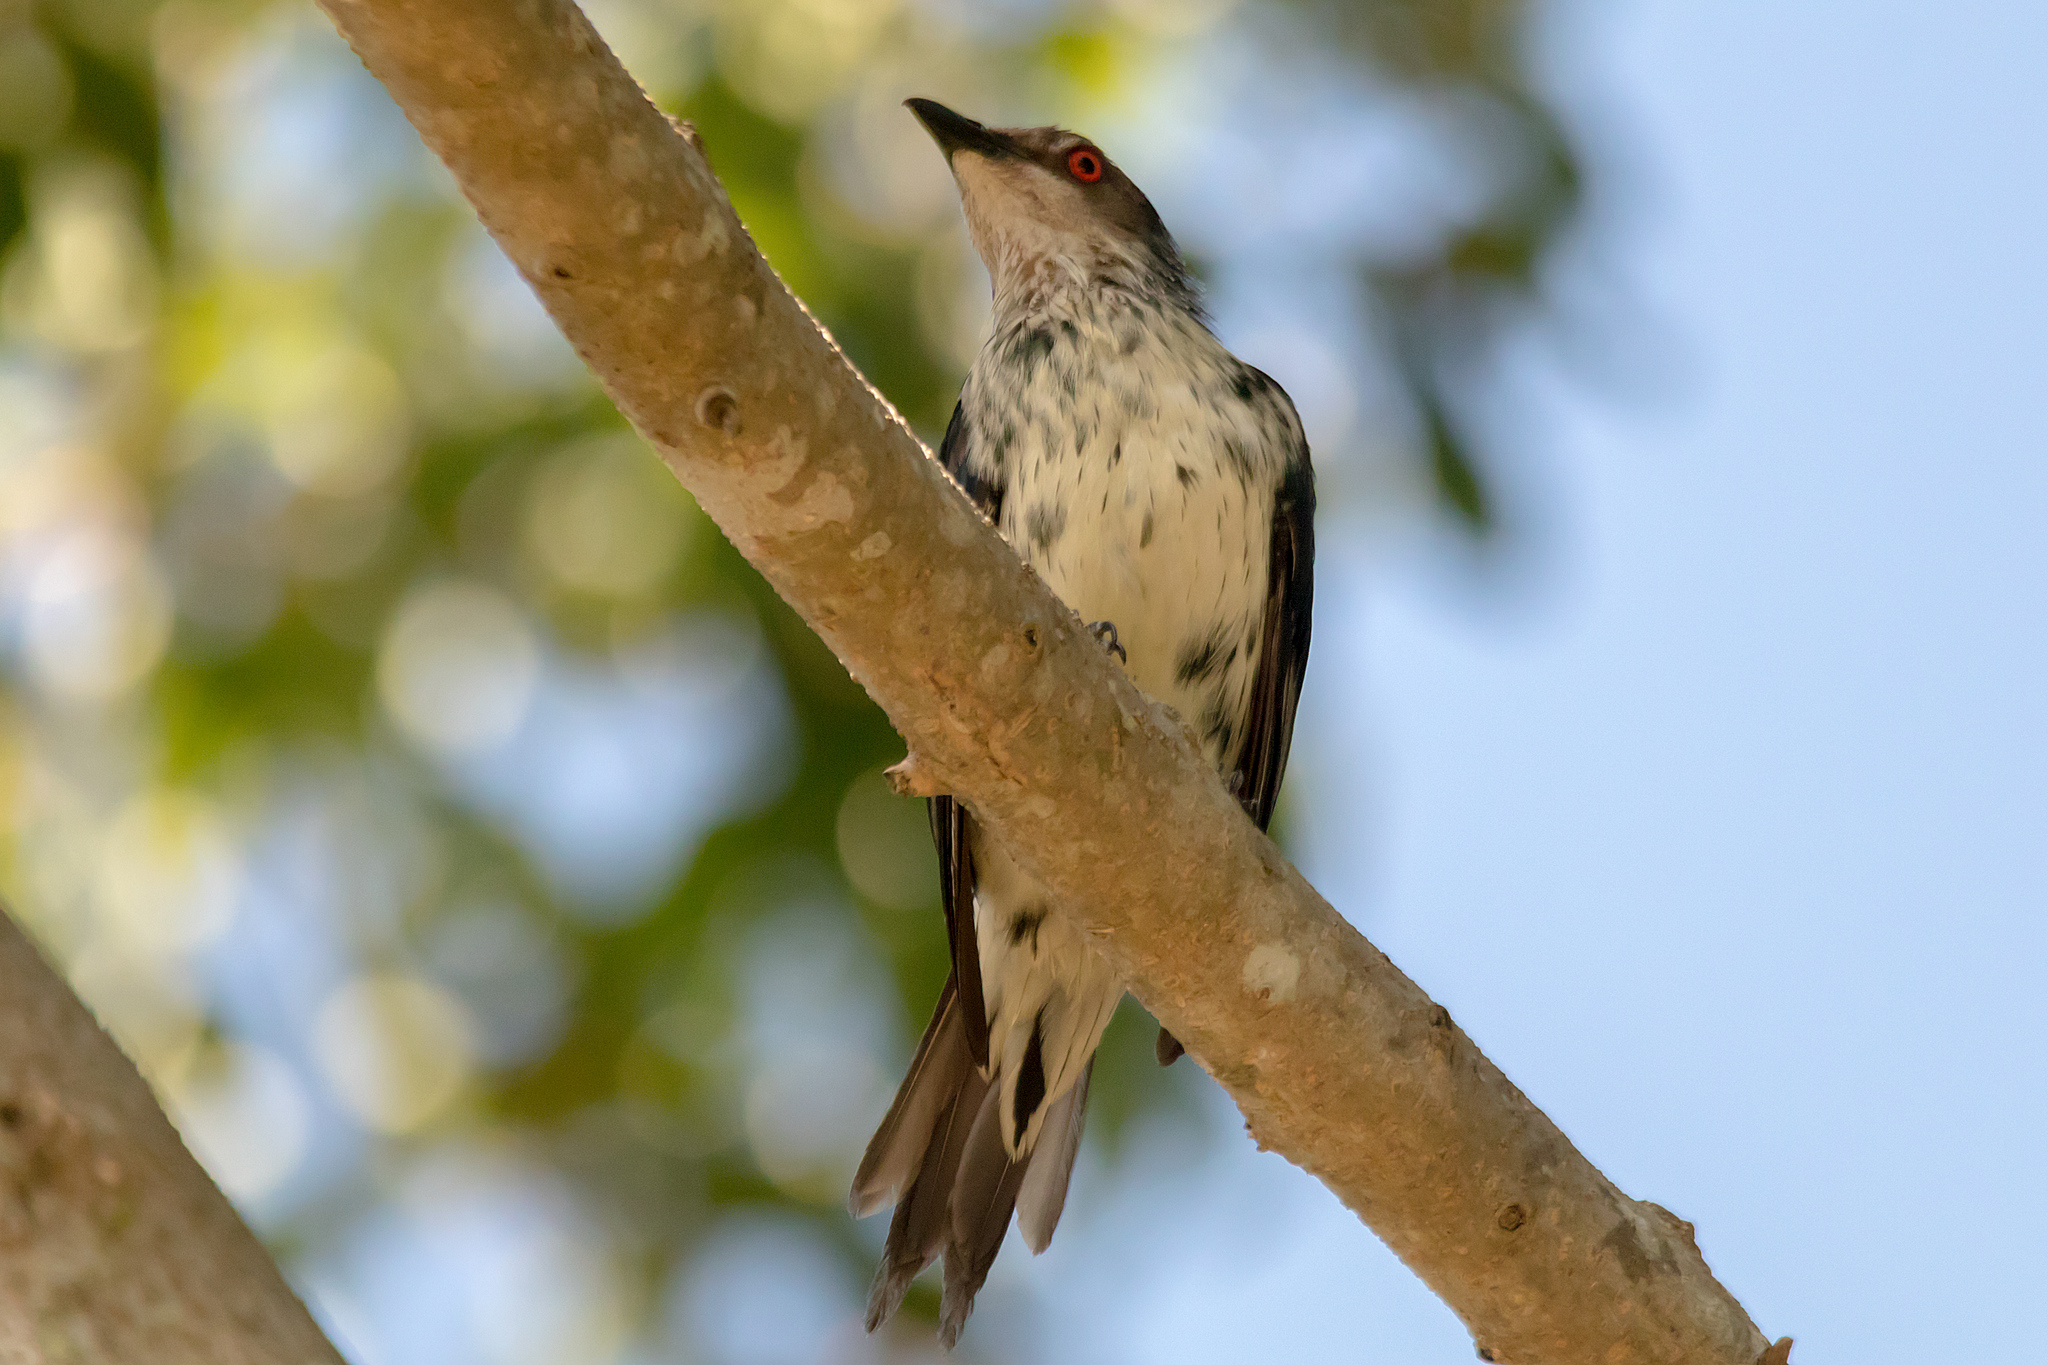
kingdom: Animalia
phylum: Chordata
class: Aves
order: Passeriformes
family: Sturnidae
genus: Aplonis
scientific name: Aplonis metallica
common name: Metallic starling
